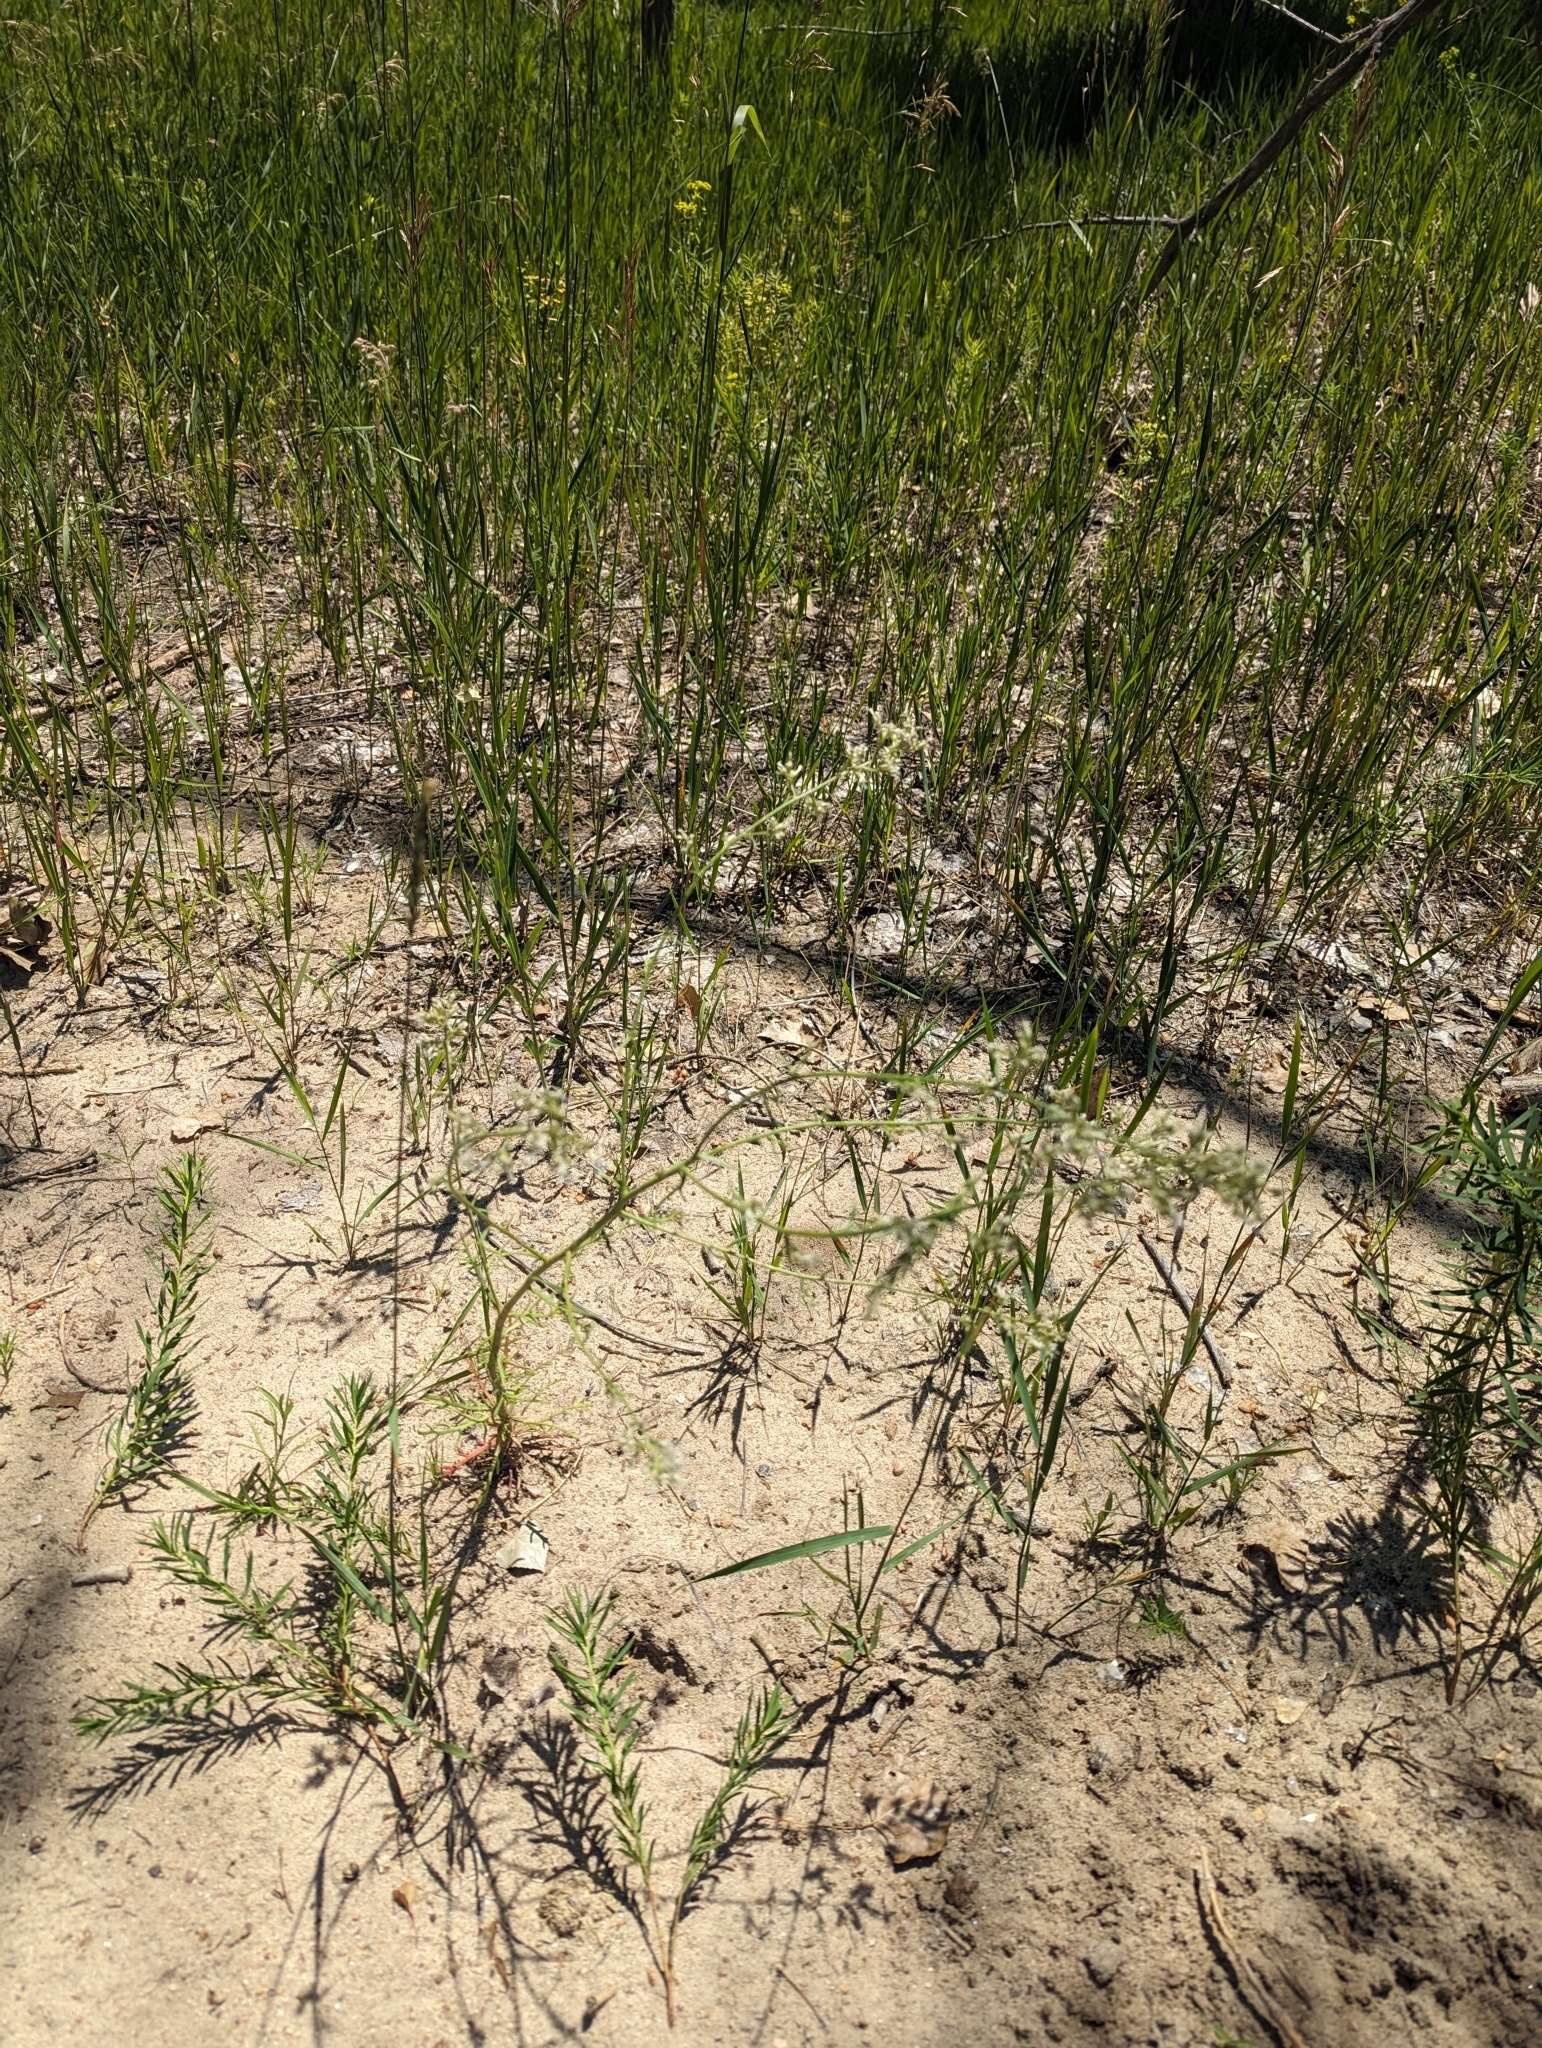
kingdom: Plantae
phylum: Tracheophyta
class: Magnoliopsida
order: Ericales
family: Polemoniaceae
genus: Aliciella
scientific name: Aliciella pinnatifida
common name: Sticky gilia
